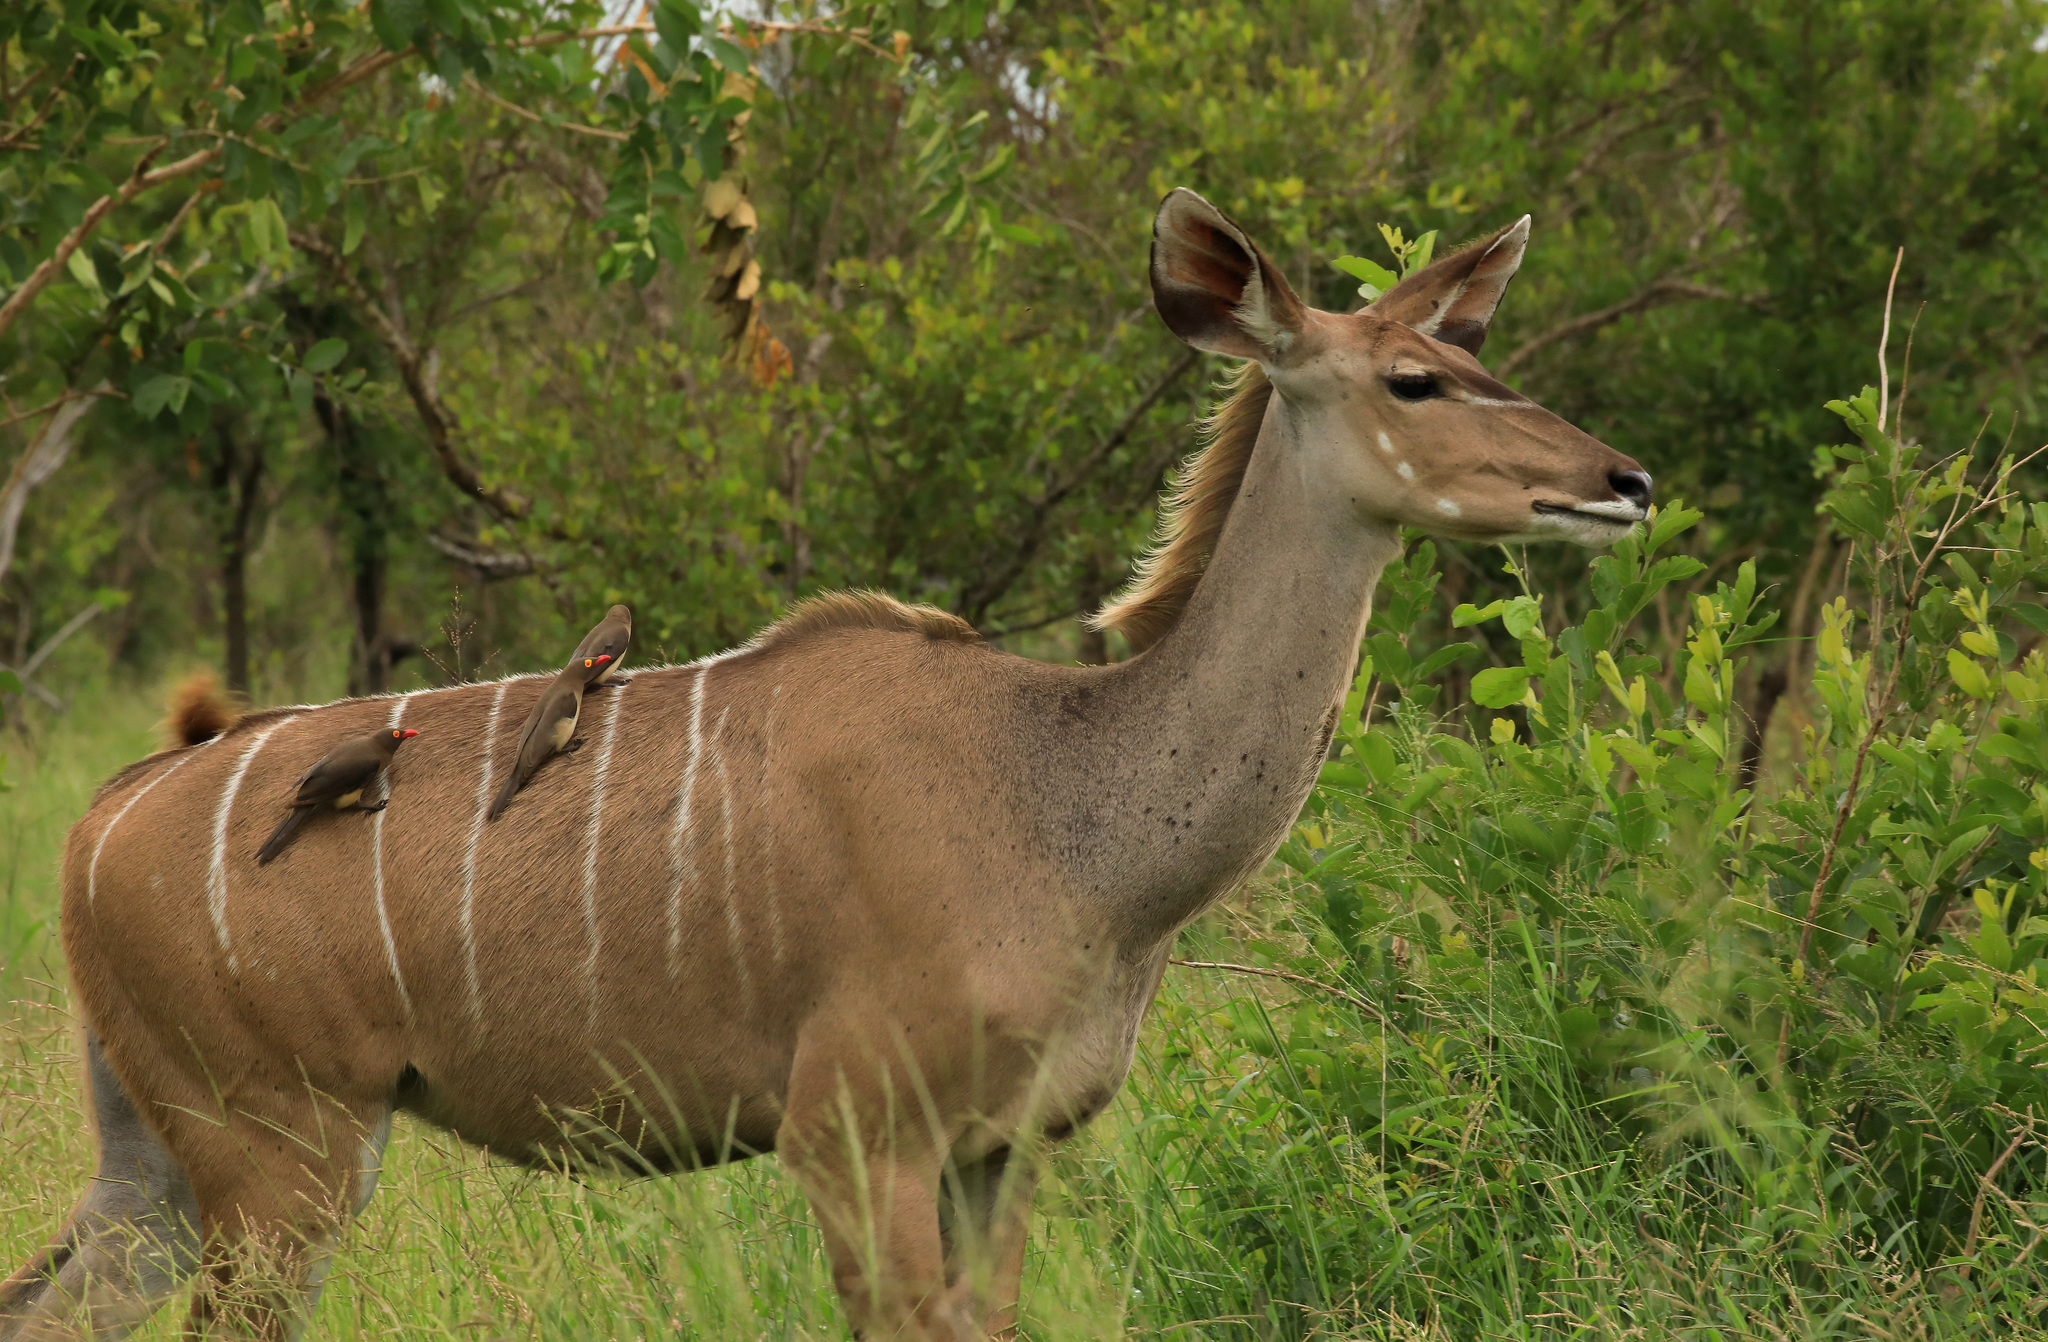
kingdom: Animalia
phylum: Chordata
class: Mammalia
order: Artiodactyla
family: Bovidae
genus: Tragelaphus
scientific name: Tragelaphus strepsiceros
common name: Greater kudu
